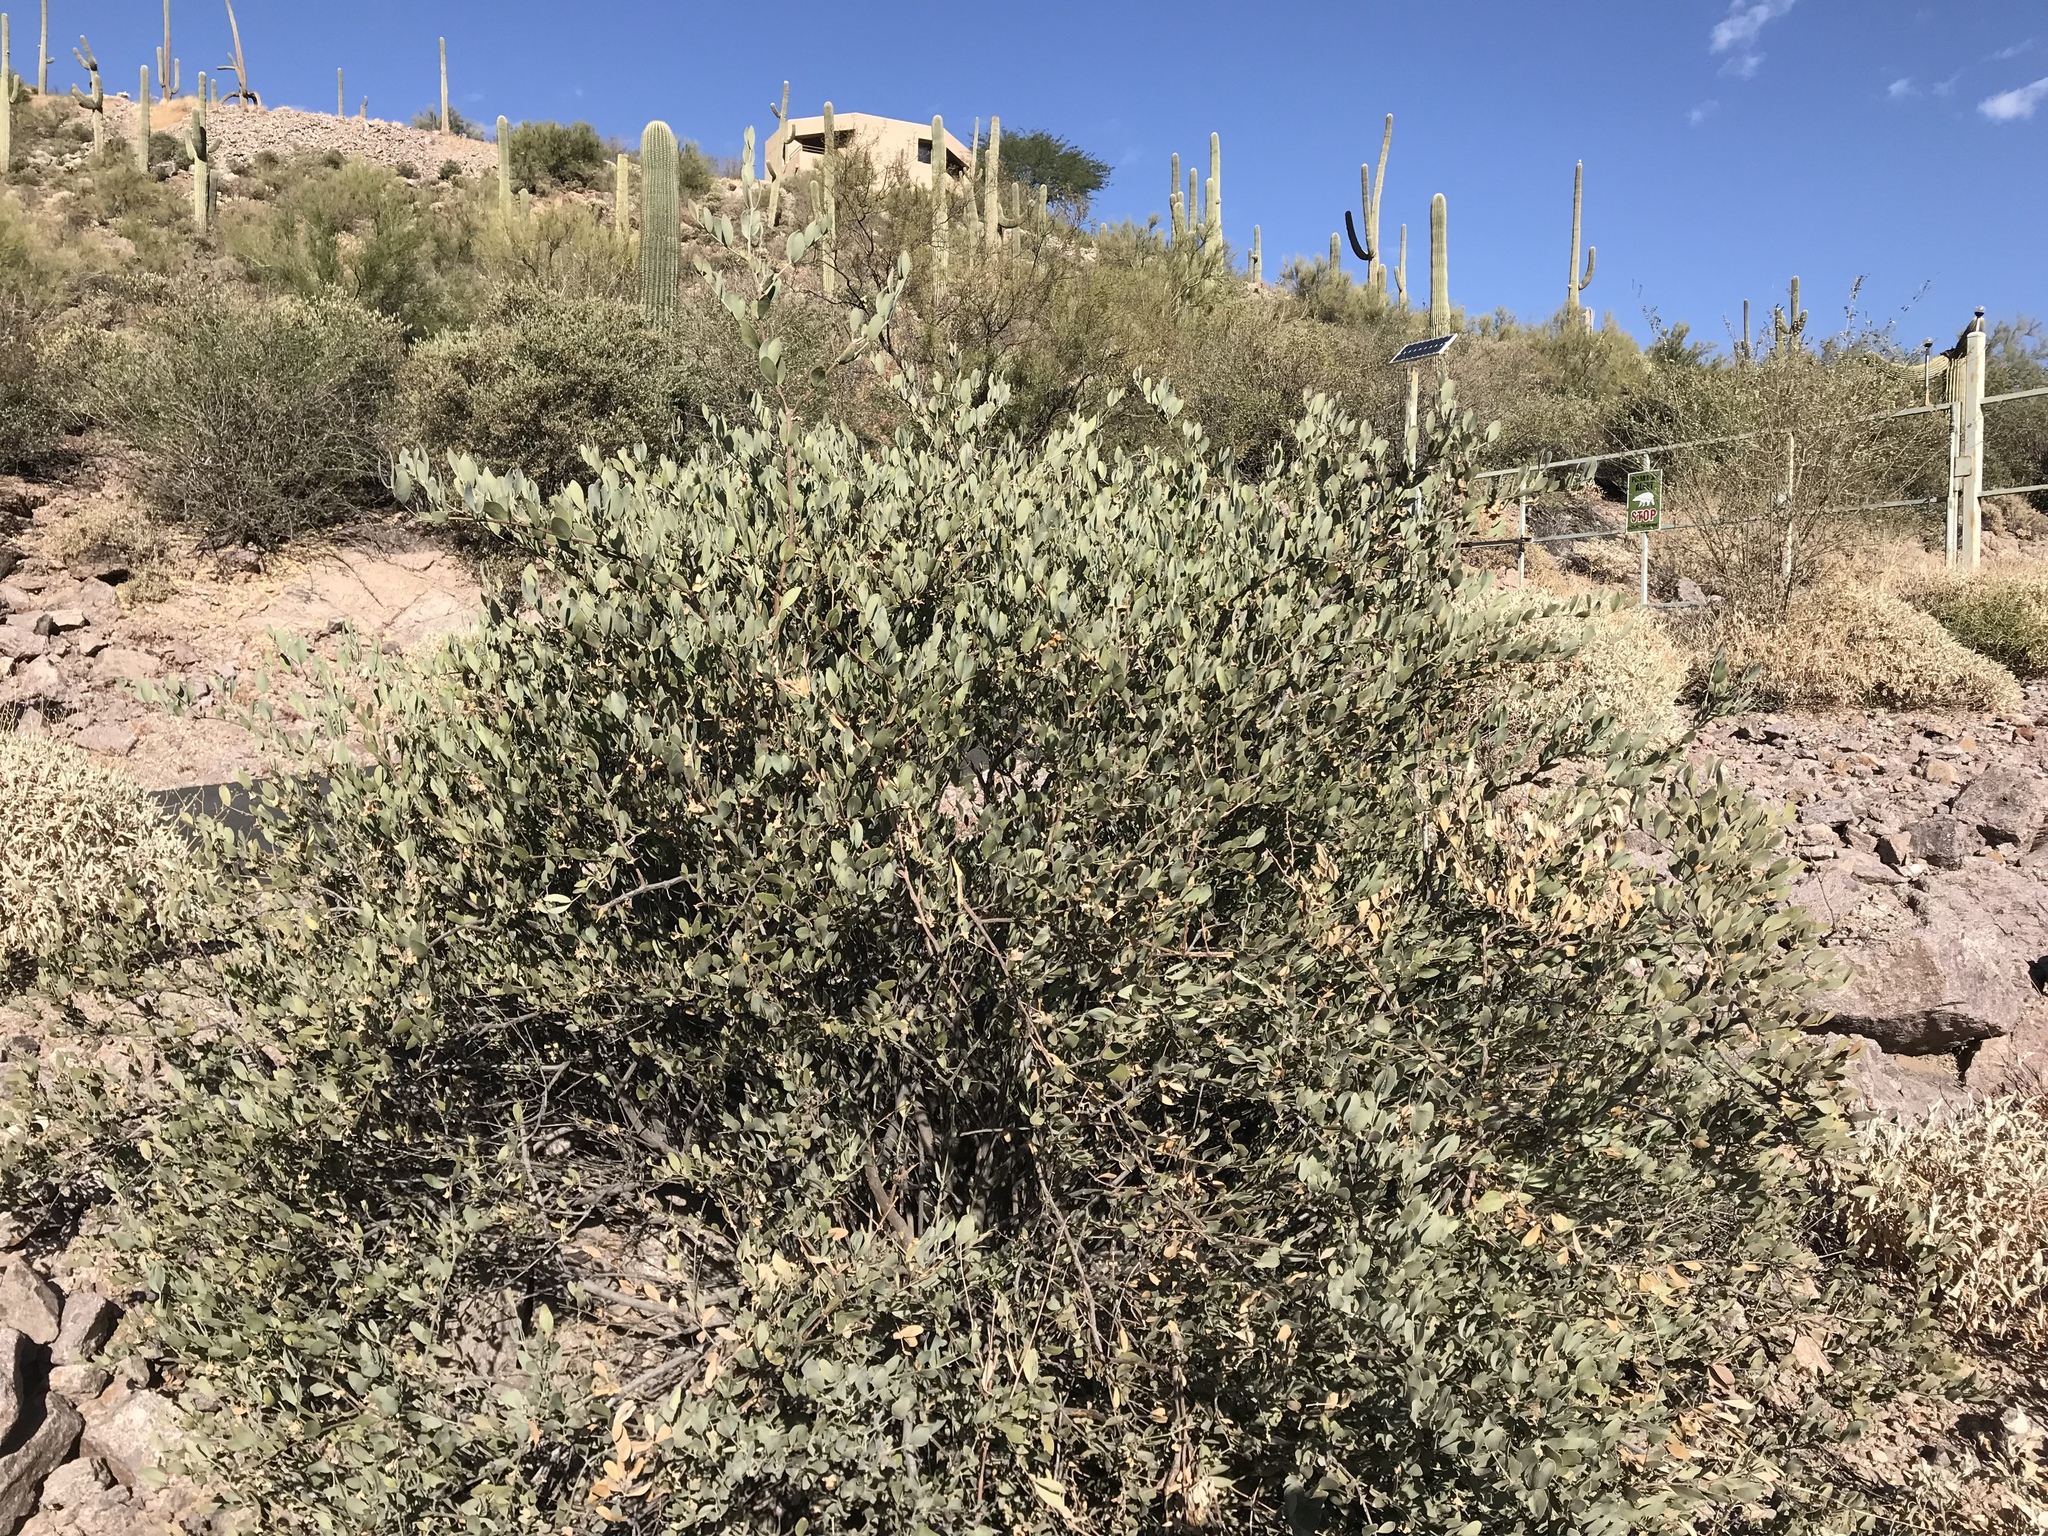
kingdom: Plantae
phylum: Tracheophyta
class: Magnoliopsida
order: Caryophyllales
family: Simmondsiaceae
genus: Simmondsia
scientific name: Simmondsia chinensis
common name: Jojoba
